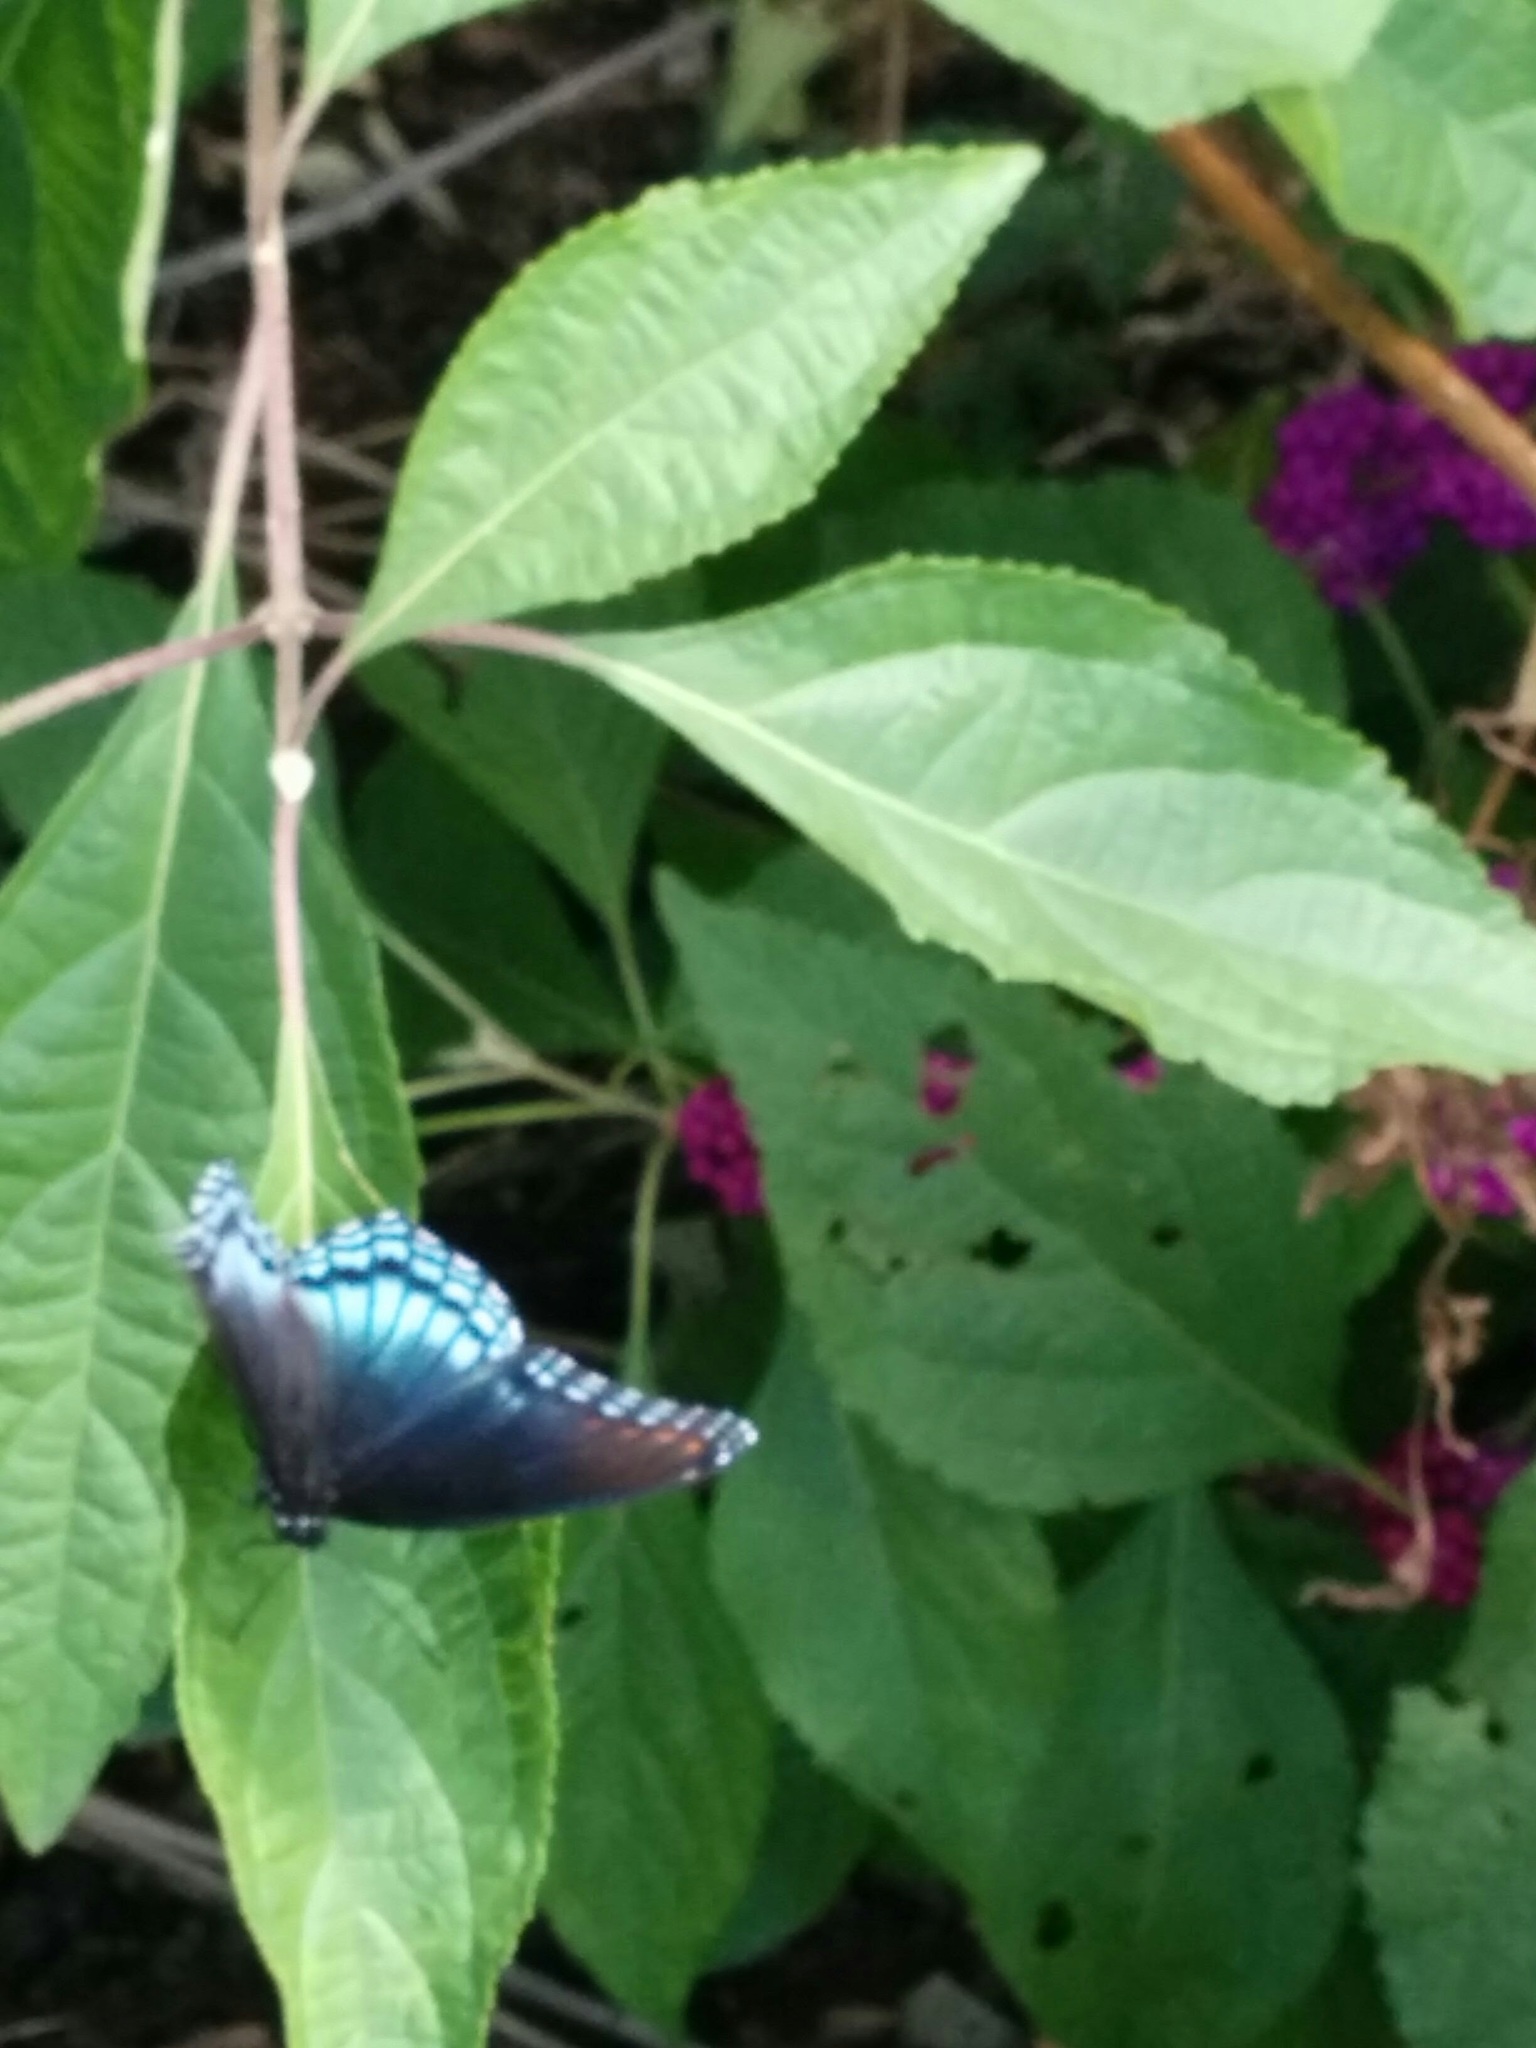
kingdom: Animalia
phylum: Arthropoda
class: Insecta
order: Lepidoptera
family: Nymphalidae
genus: Limenitis
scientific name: Limenitis arthemis
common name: Red-spotted admiral
